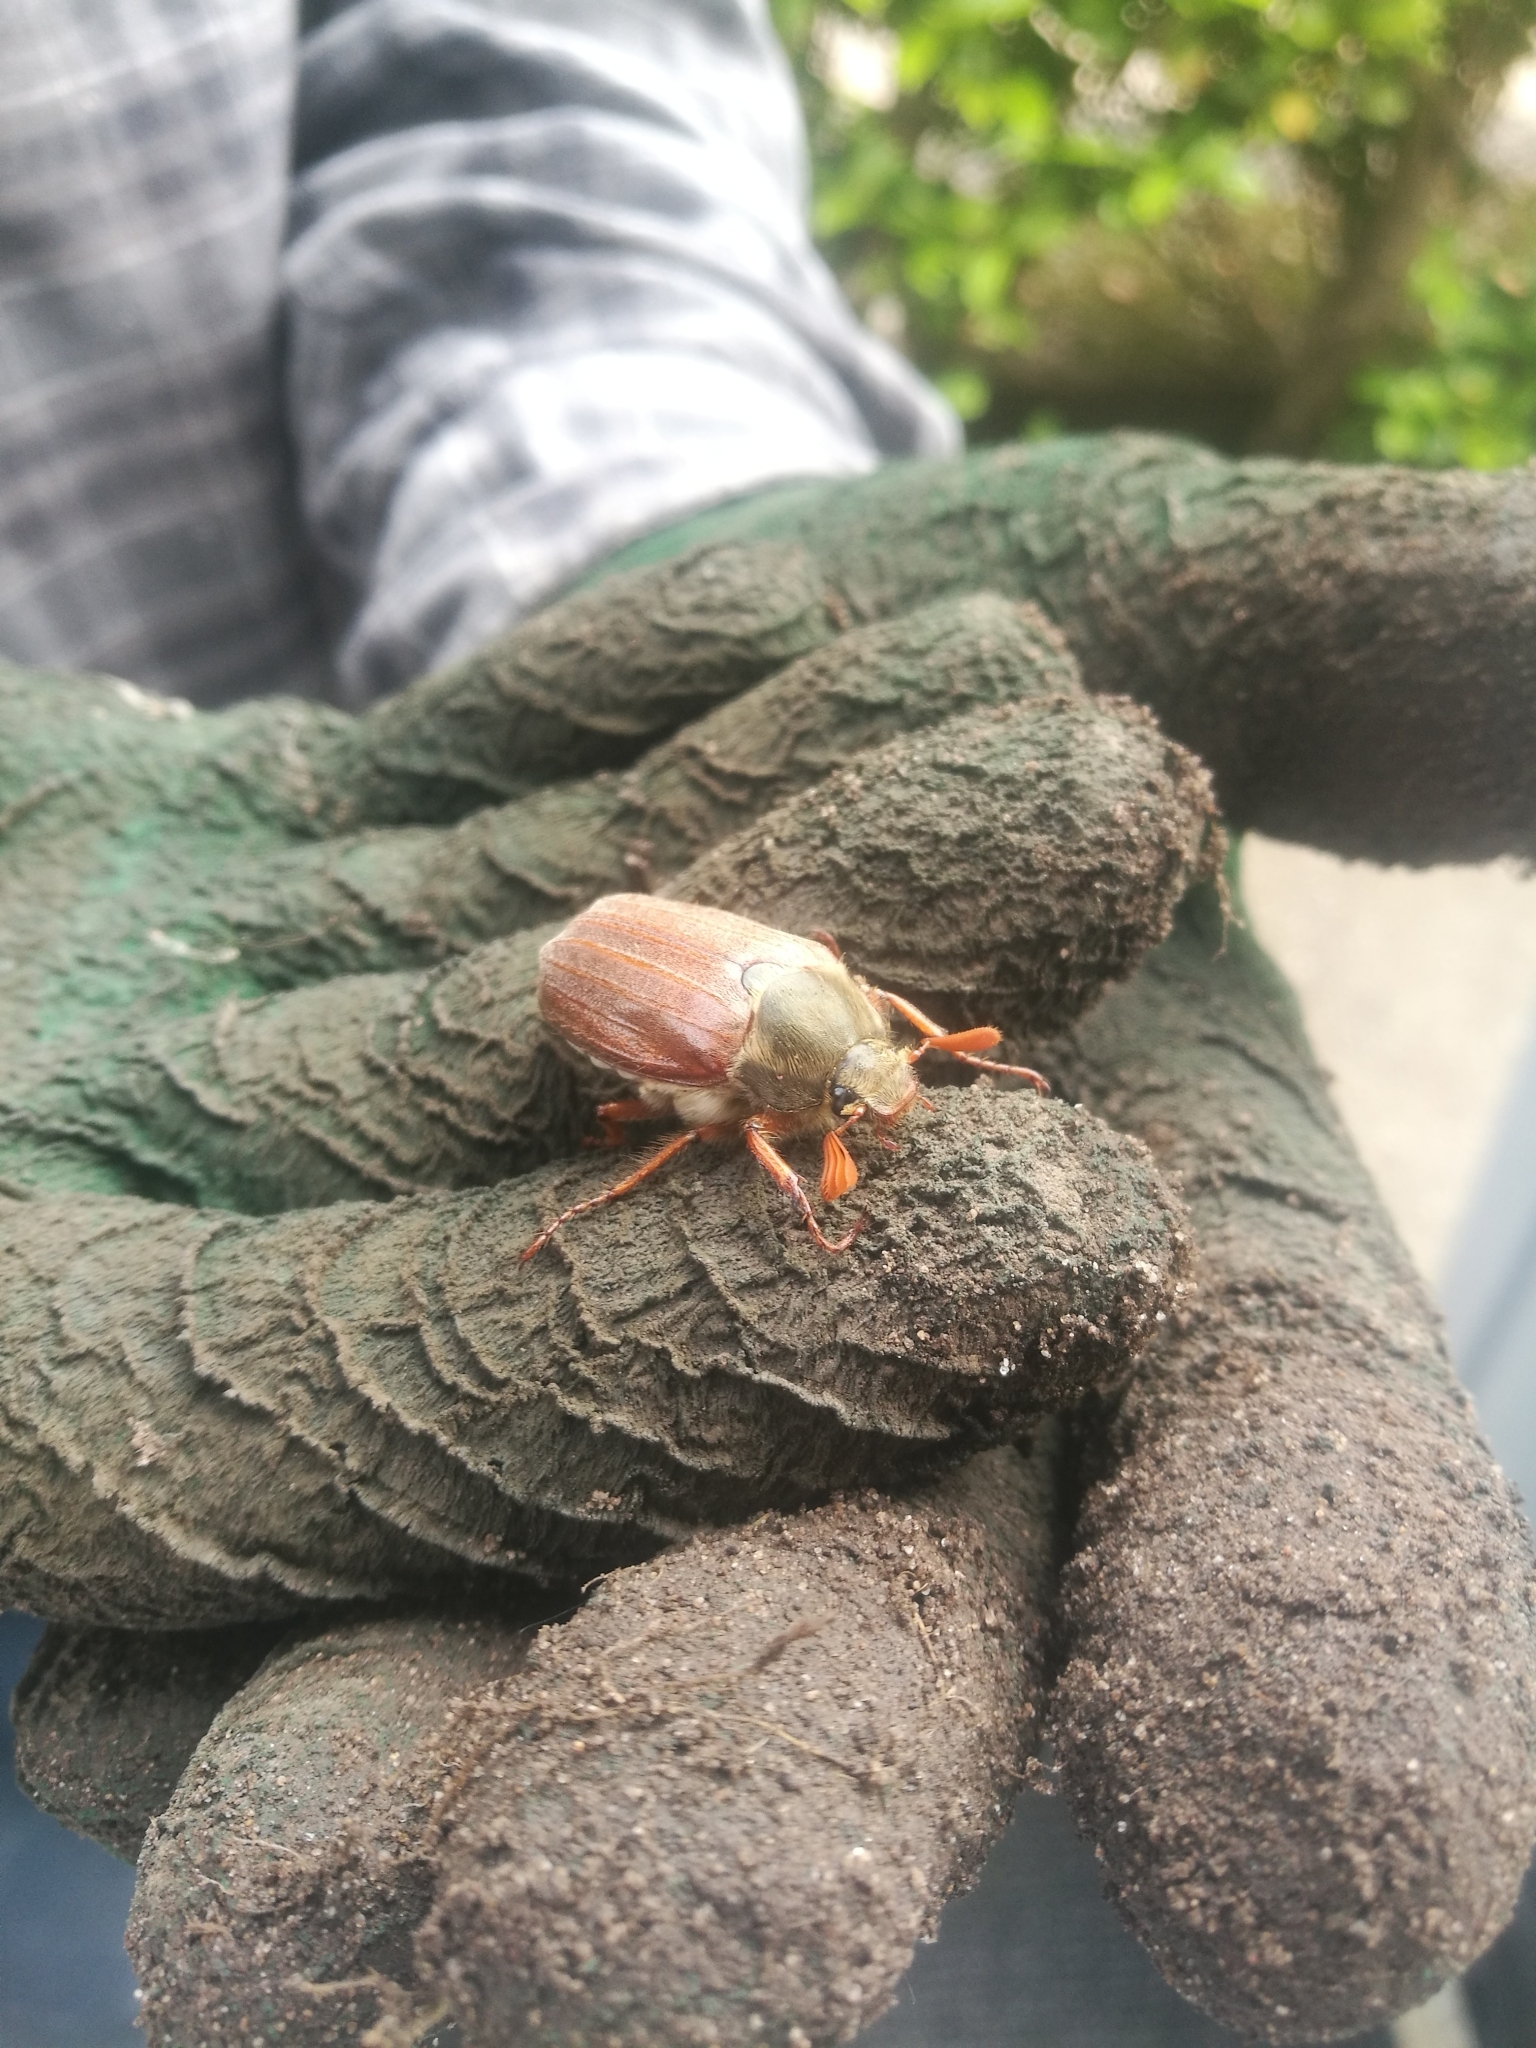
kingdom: Animalia
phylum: Arthropoda
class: Insecta
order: Coleoptera
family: Scarabaeidae
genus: Melolontha
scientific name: Melolontha melolontha
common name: Cockchafer maybeetle
